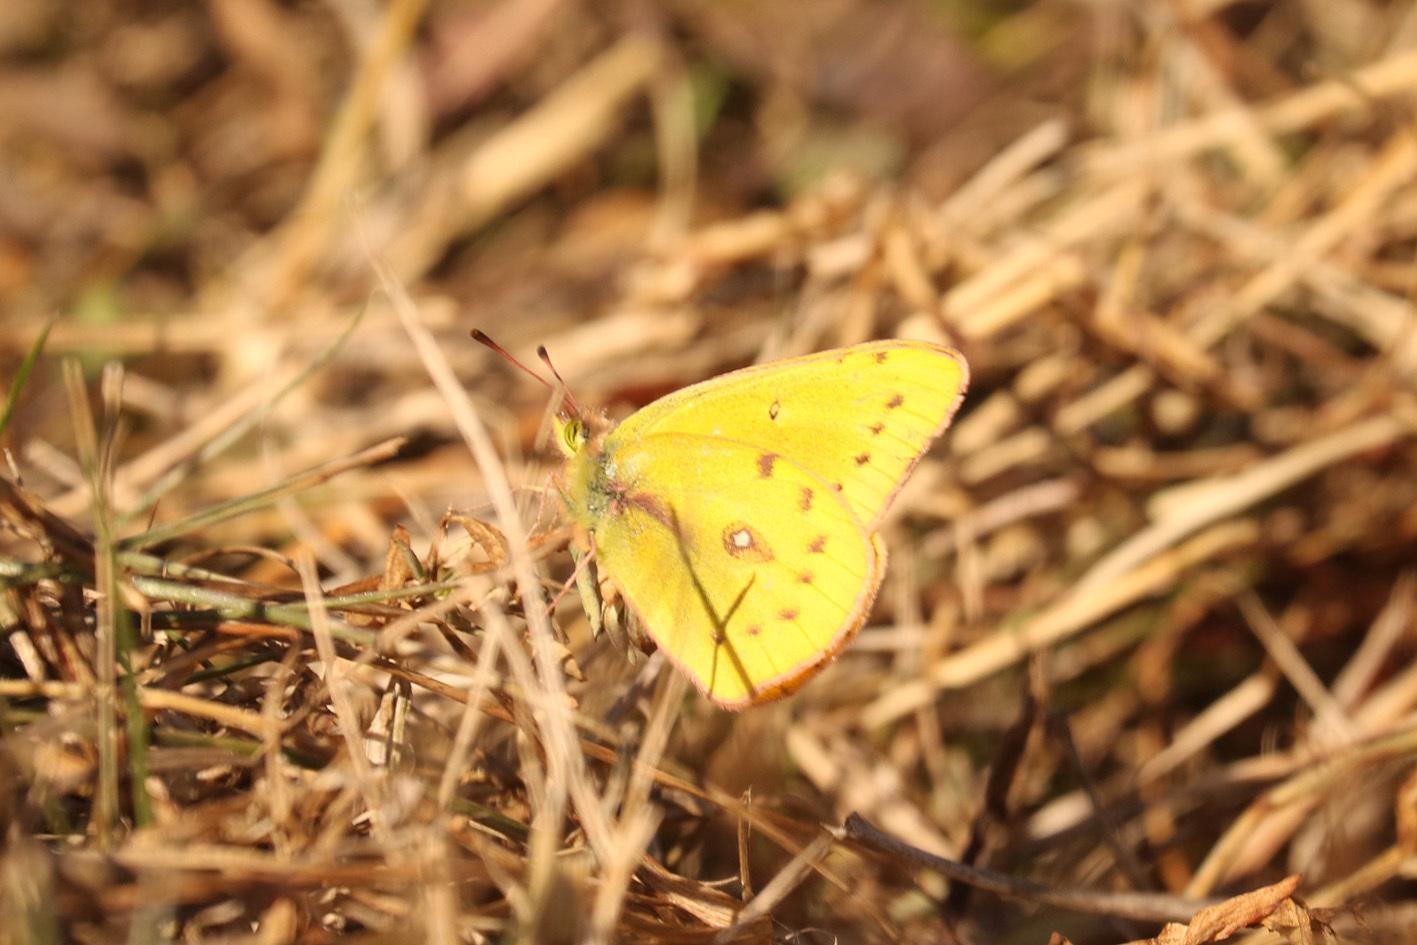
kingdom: Animalia
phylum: Arthropoda
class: Insecta
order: Lepidoptera
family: Pieridae
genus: Colias
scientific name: Colias lesbia
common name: Lesbia clouded yellow
